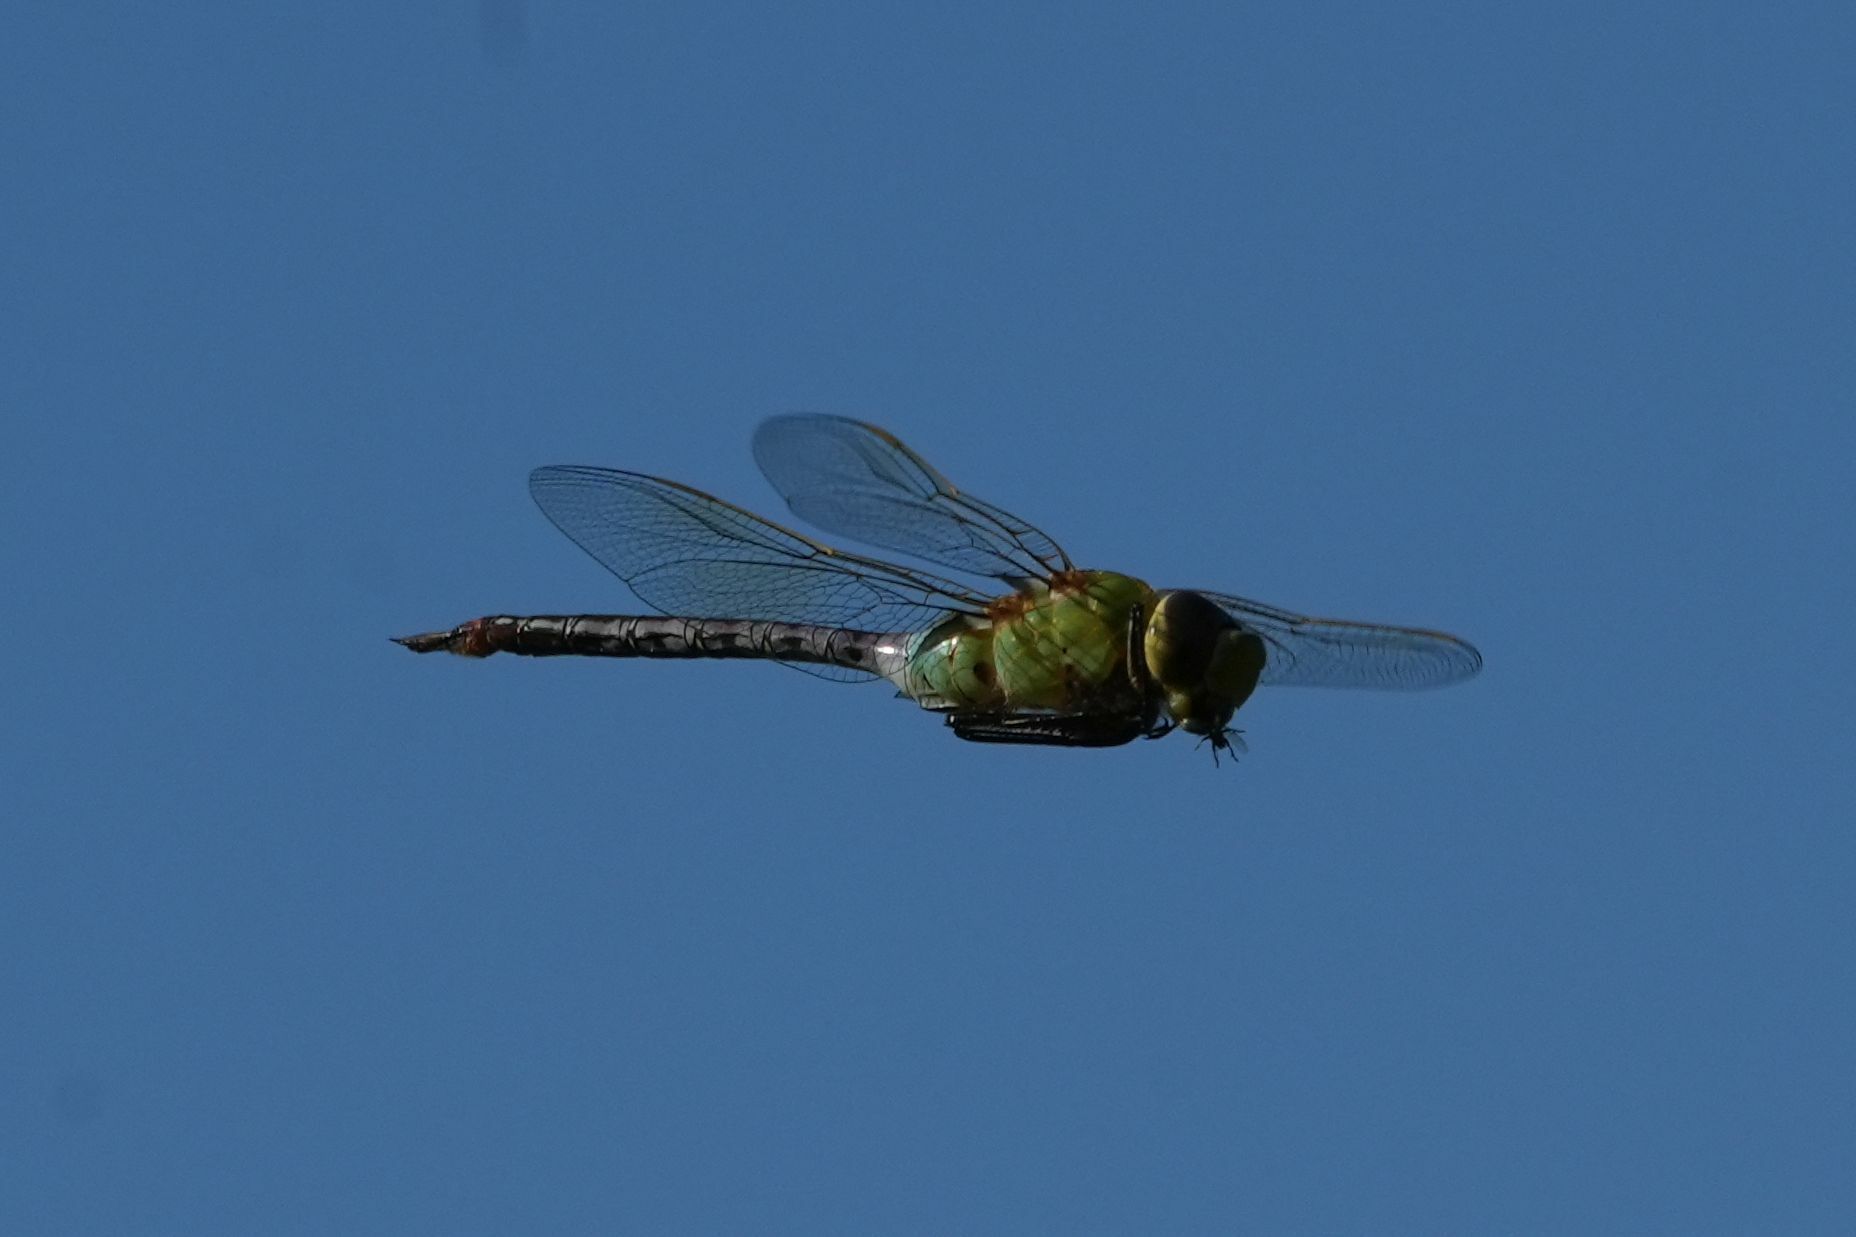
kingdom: Animalia
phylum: Arthropoda
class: Insecta
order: Odonata
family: Aeshnidae
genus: Anax
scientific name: Anax junius
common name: Common green darner
